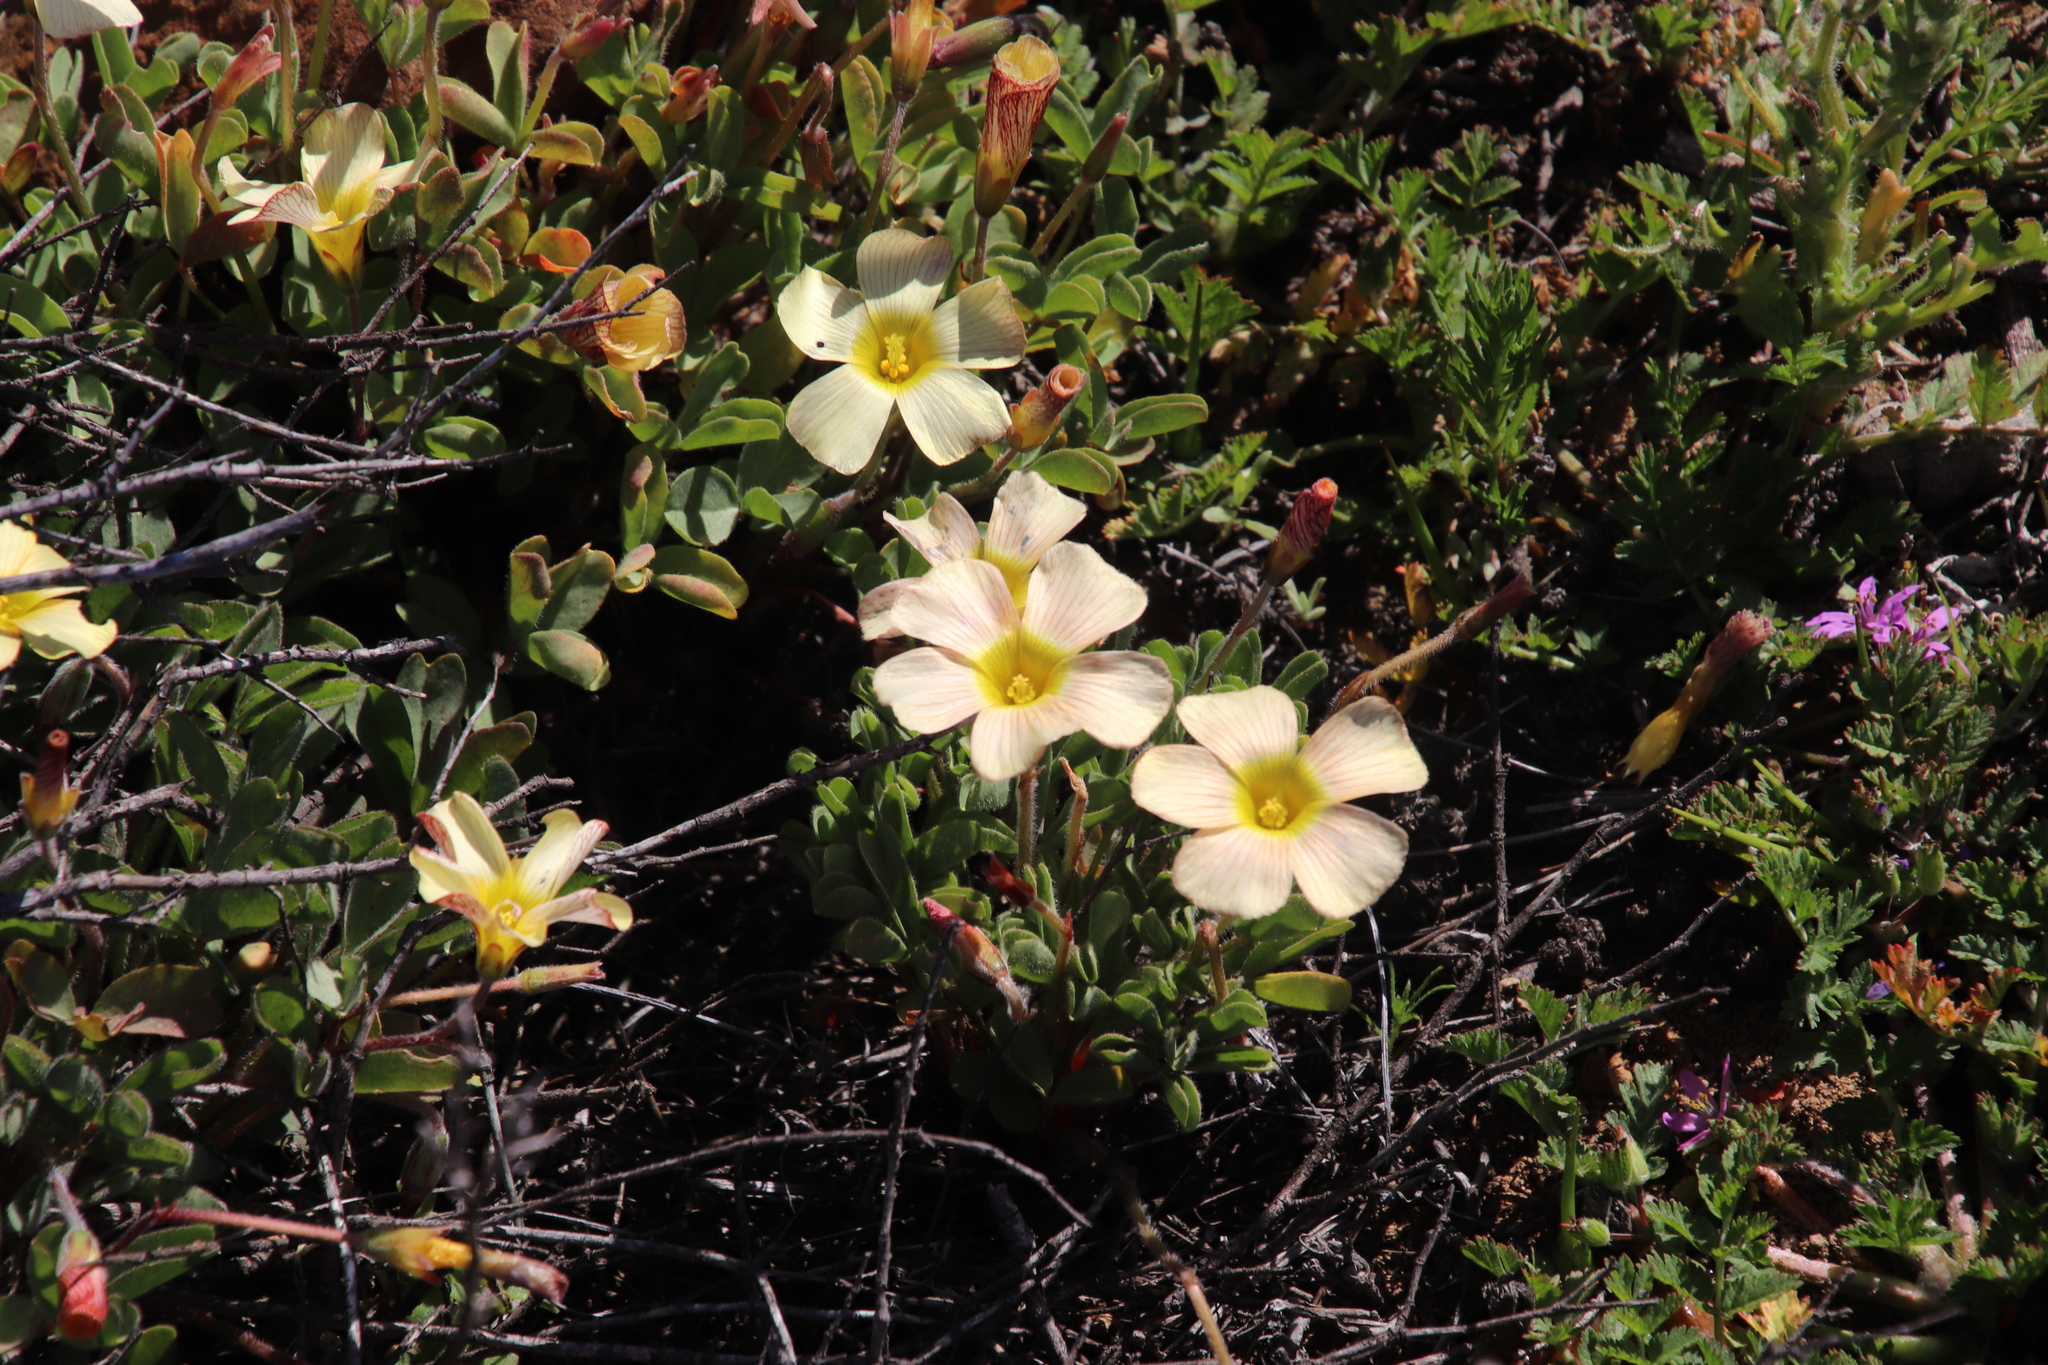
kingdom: Plantae
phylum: Tracheophyta
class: Magnoliopsida
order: Oxalidales
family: Oxalidaceae
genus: Oxalis
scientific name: Oxalis obtusa
